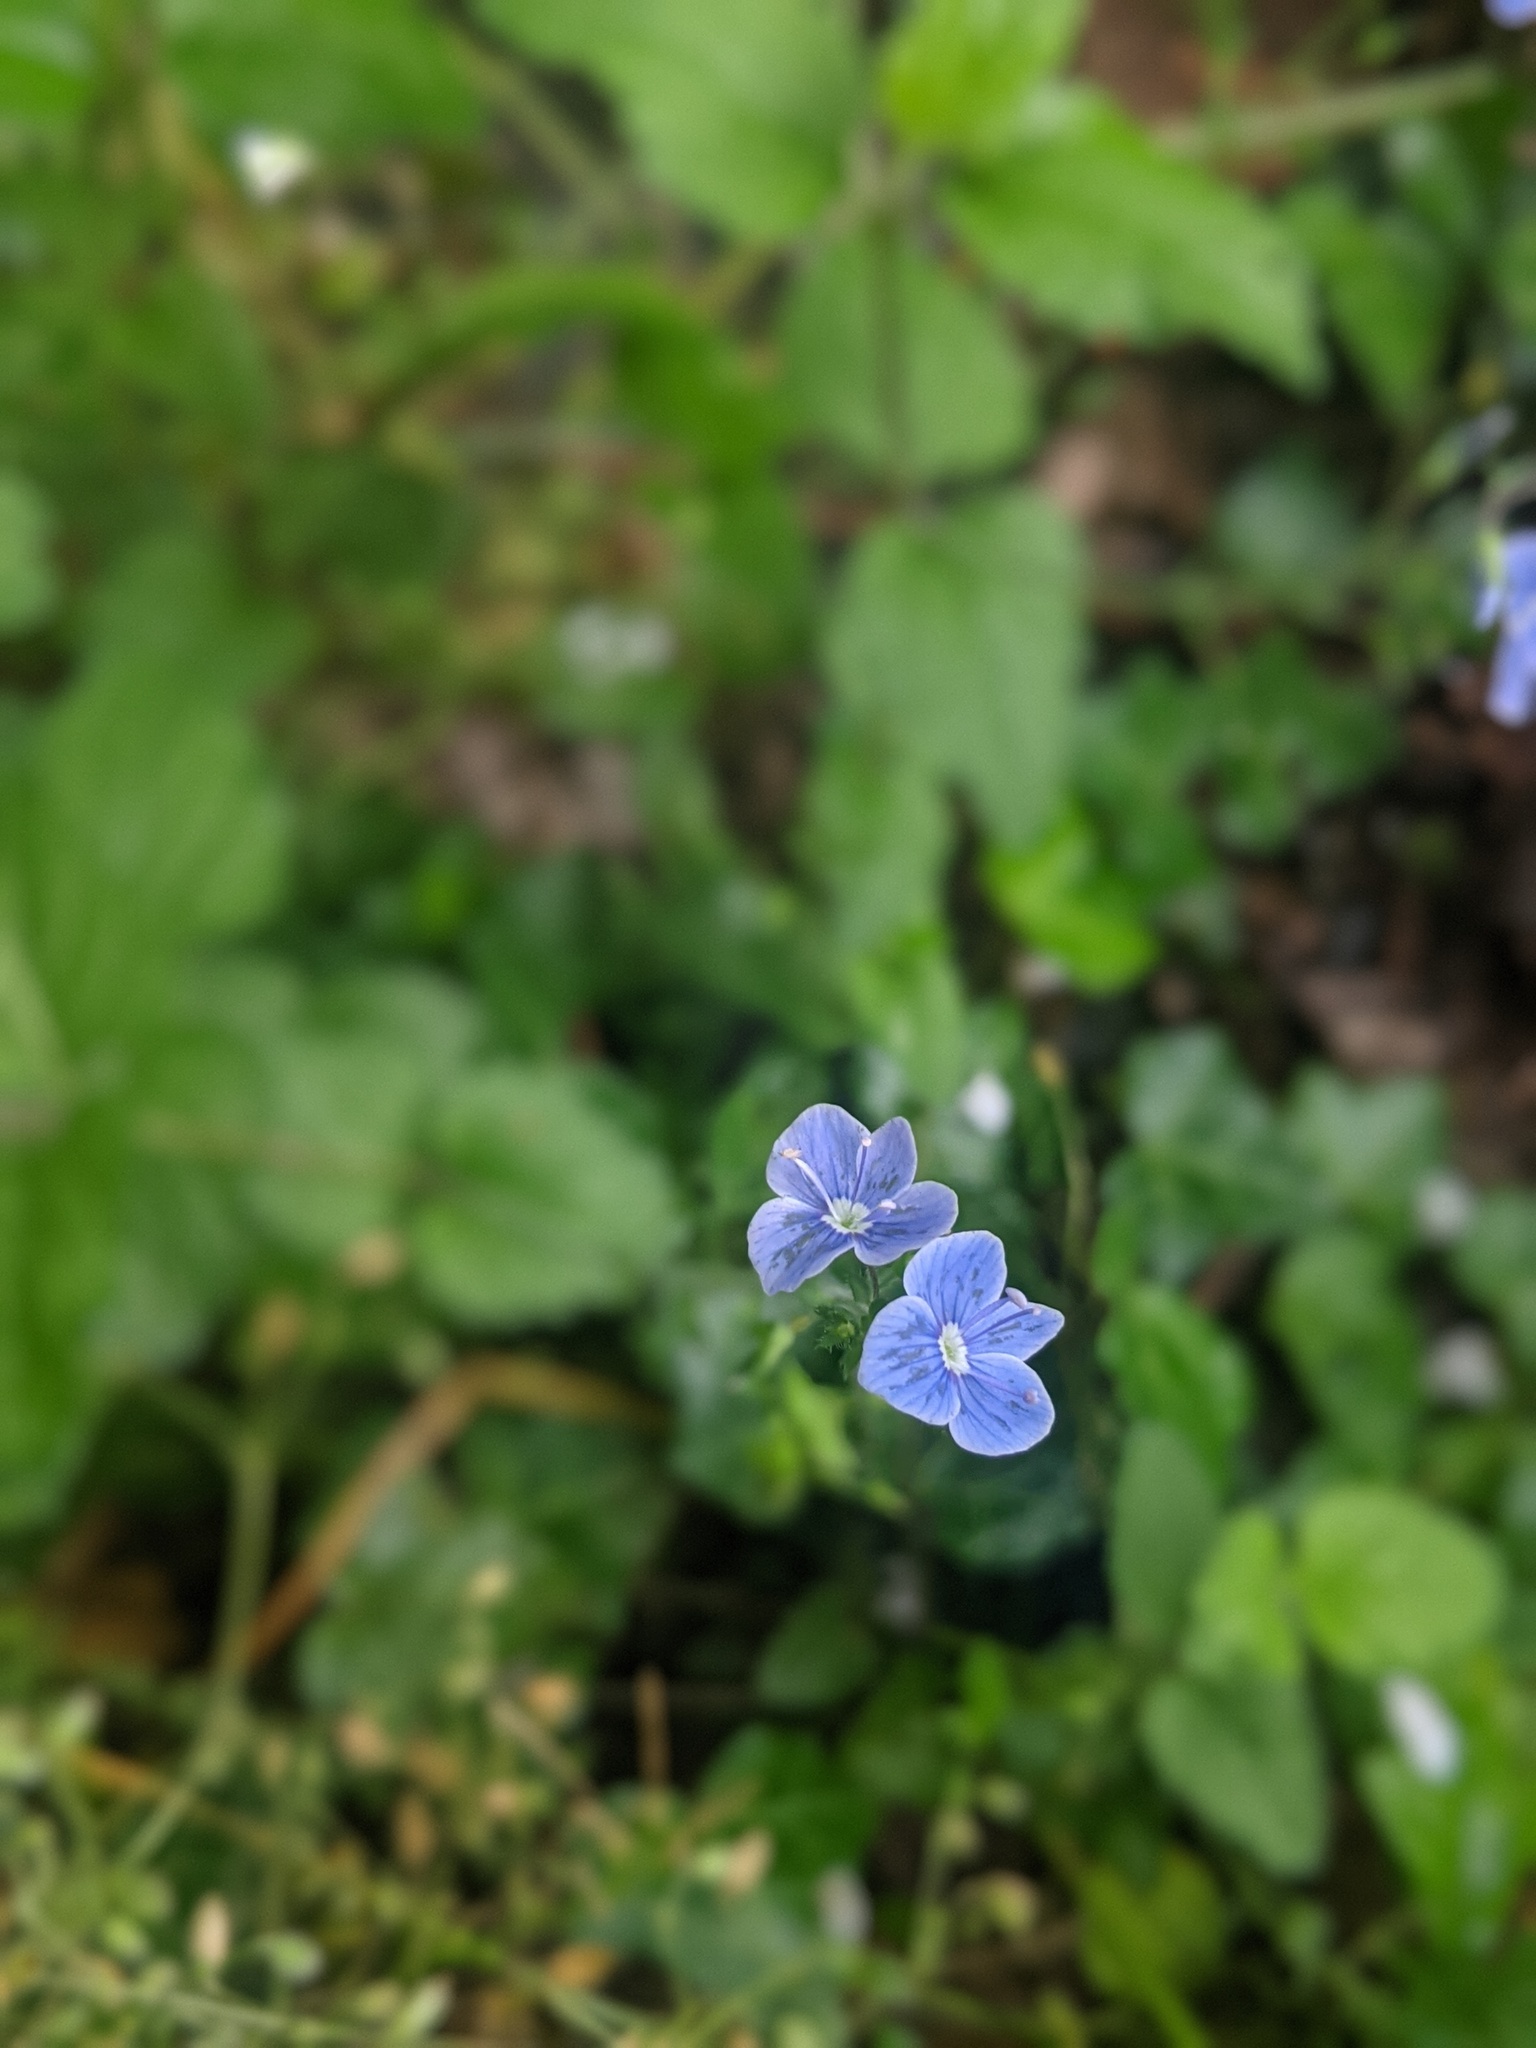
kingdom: Plantae
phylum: Tracheophyta
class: Magnoliopsida
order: Lamiales
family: Plantaginaceae
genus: Veronica
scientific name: Veronica chamaedrys
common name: Germander speedwell
